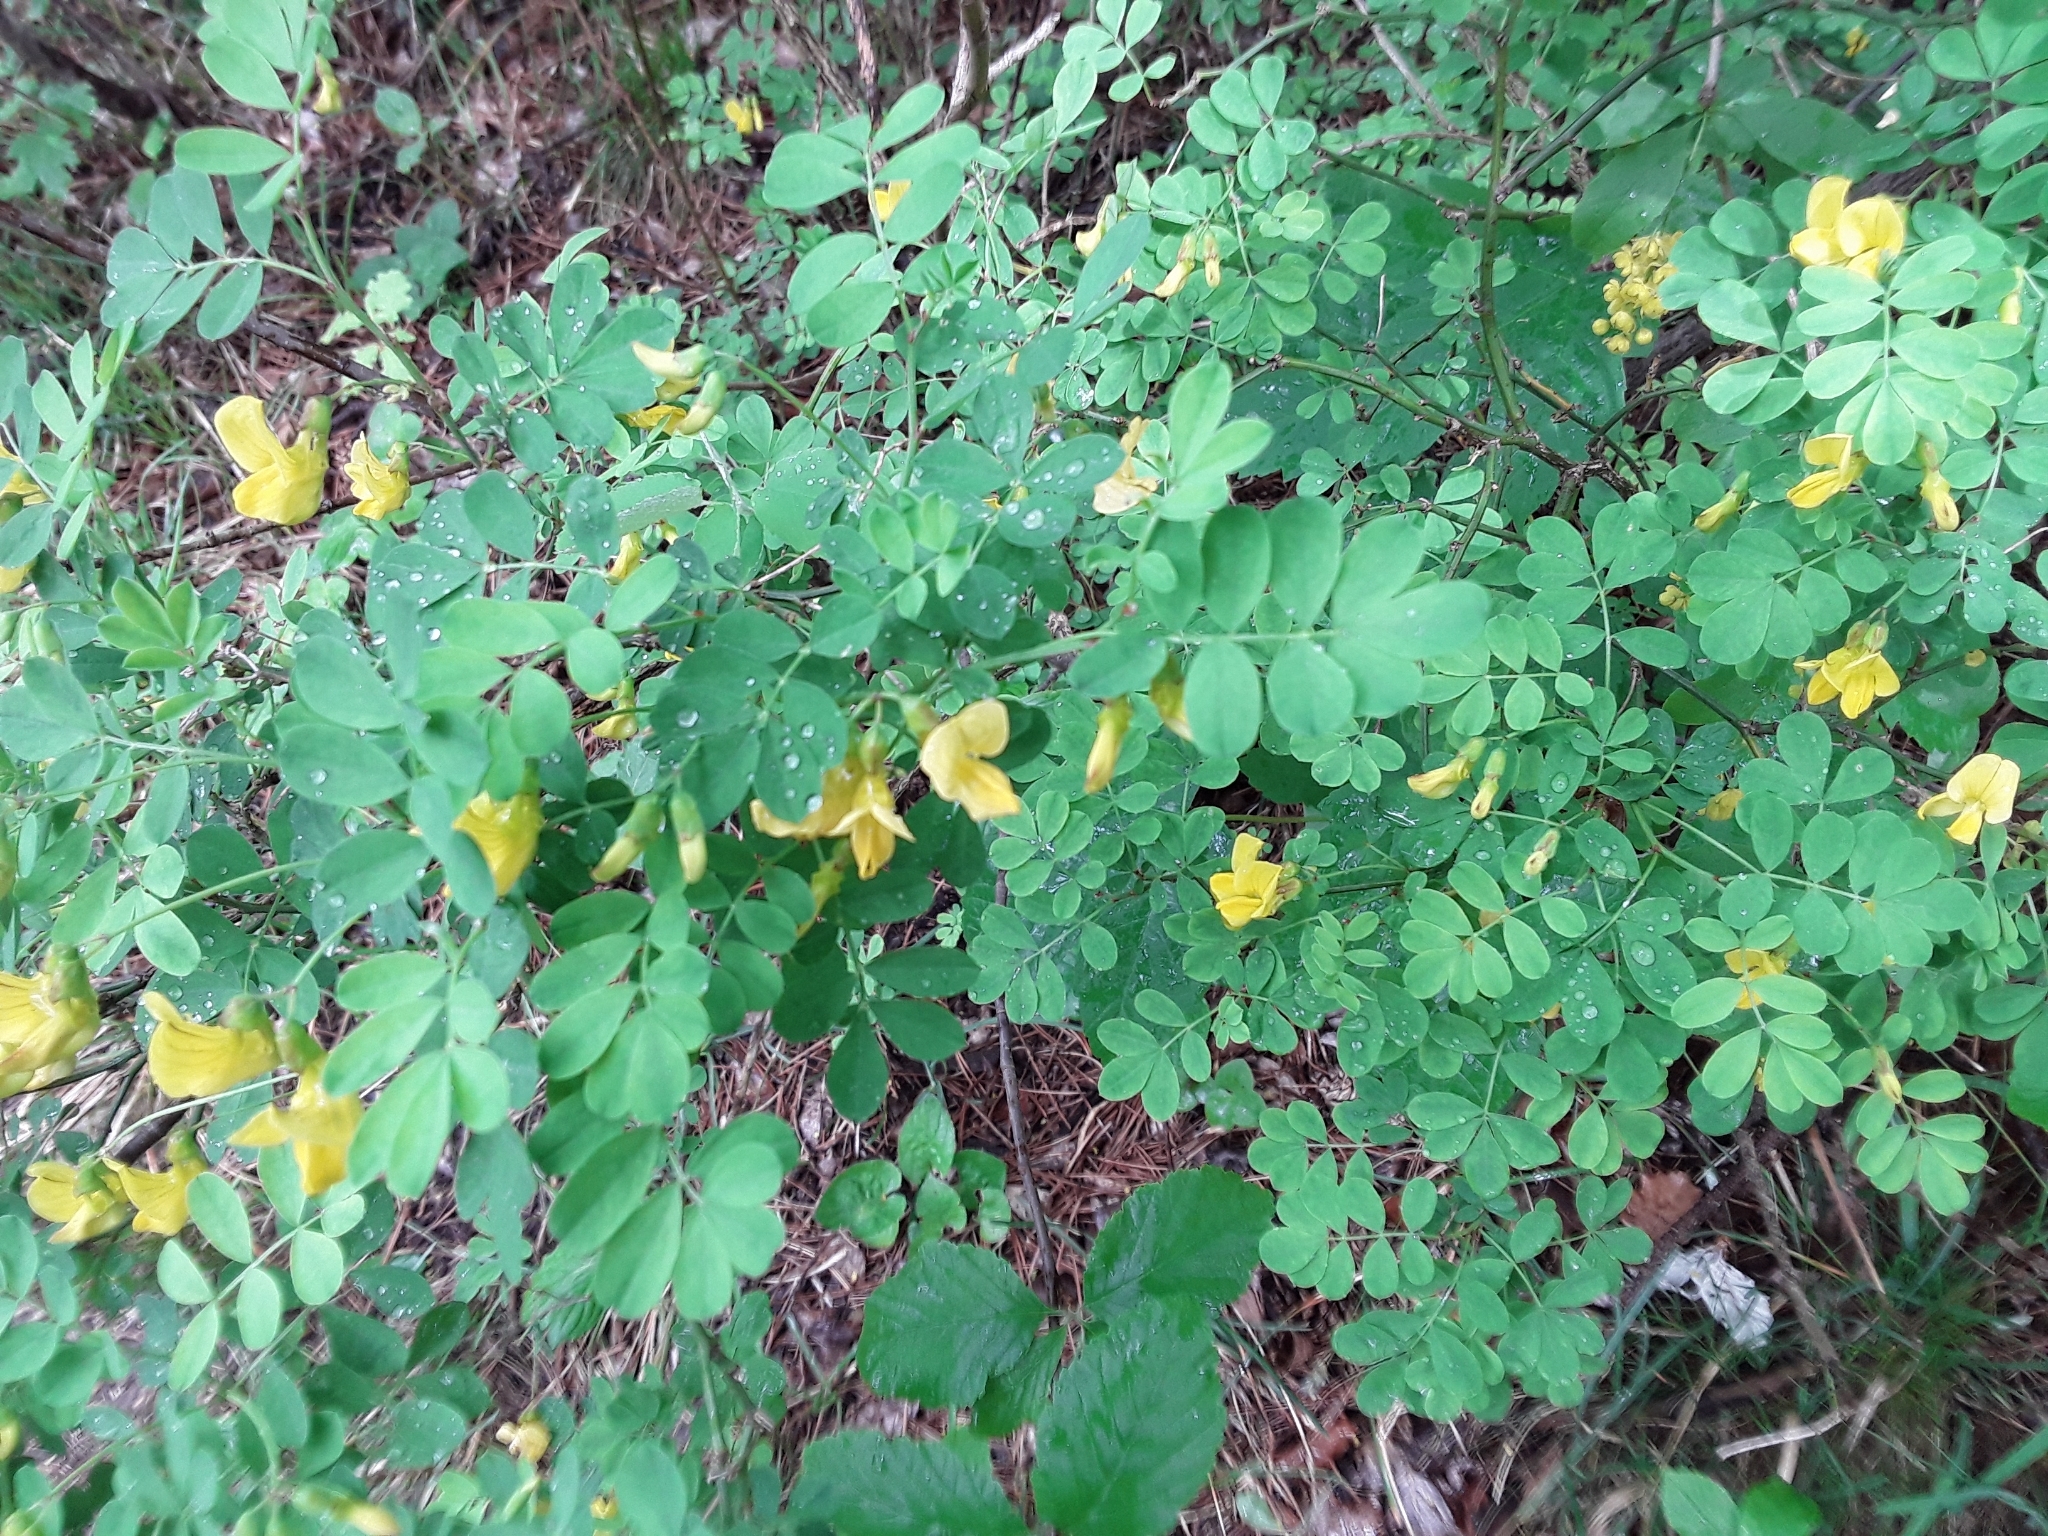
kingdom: Plantae
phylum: Tracheophyta
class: Magnoliopsida
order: Fabales
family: Fabaceae
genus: Hippocrepis
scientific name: Hippocrepis emerus
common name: Scorpion senna
